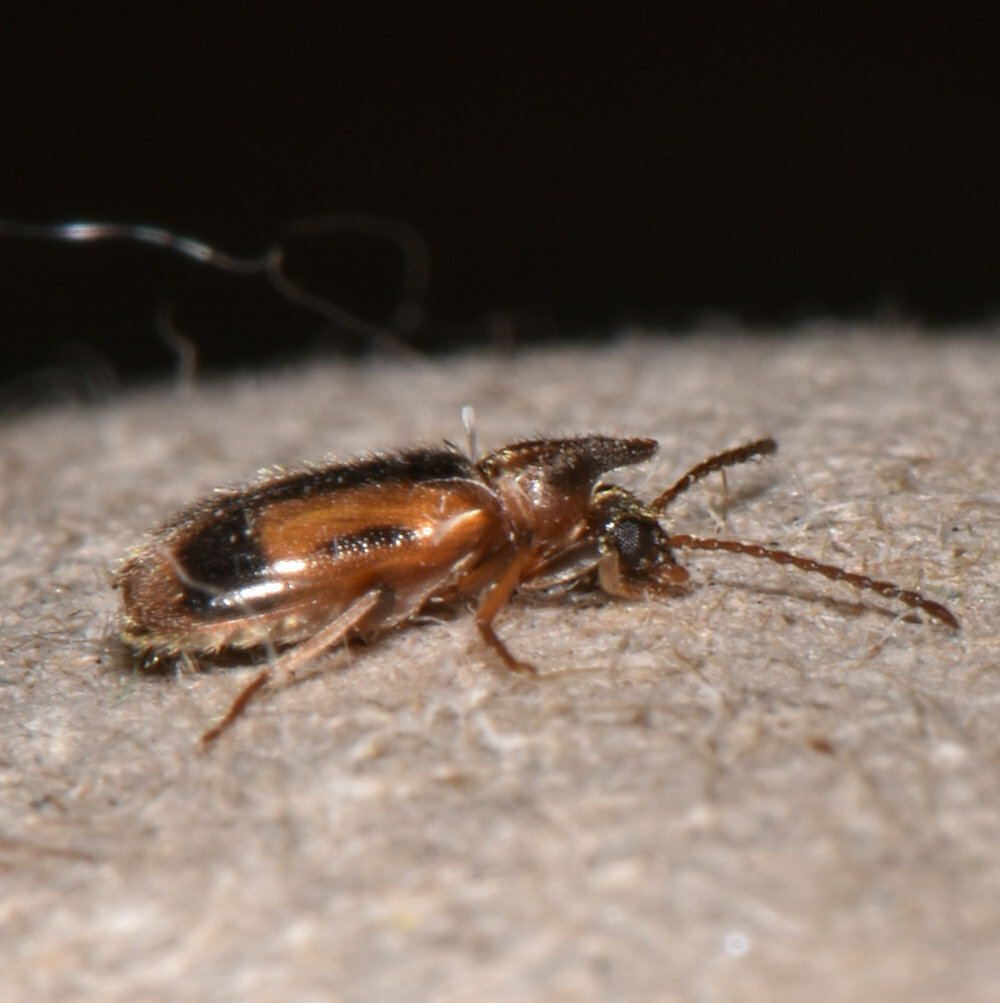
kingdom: Animalia
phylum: Arthropoda
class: Insecta
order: Coleoptera
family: Anthicidae
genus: Notoxus
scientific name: Notoxus anchora
